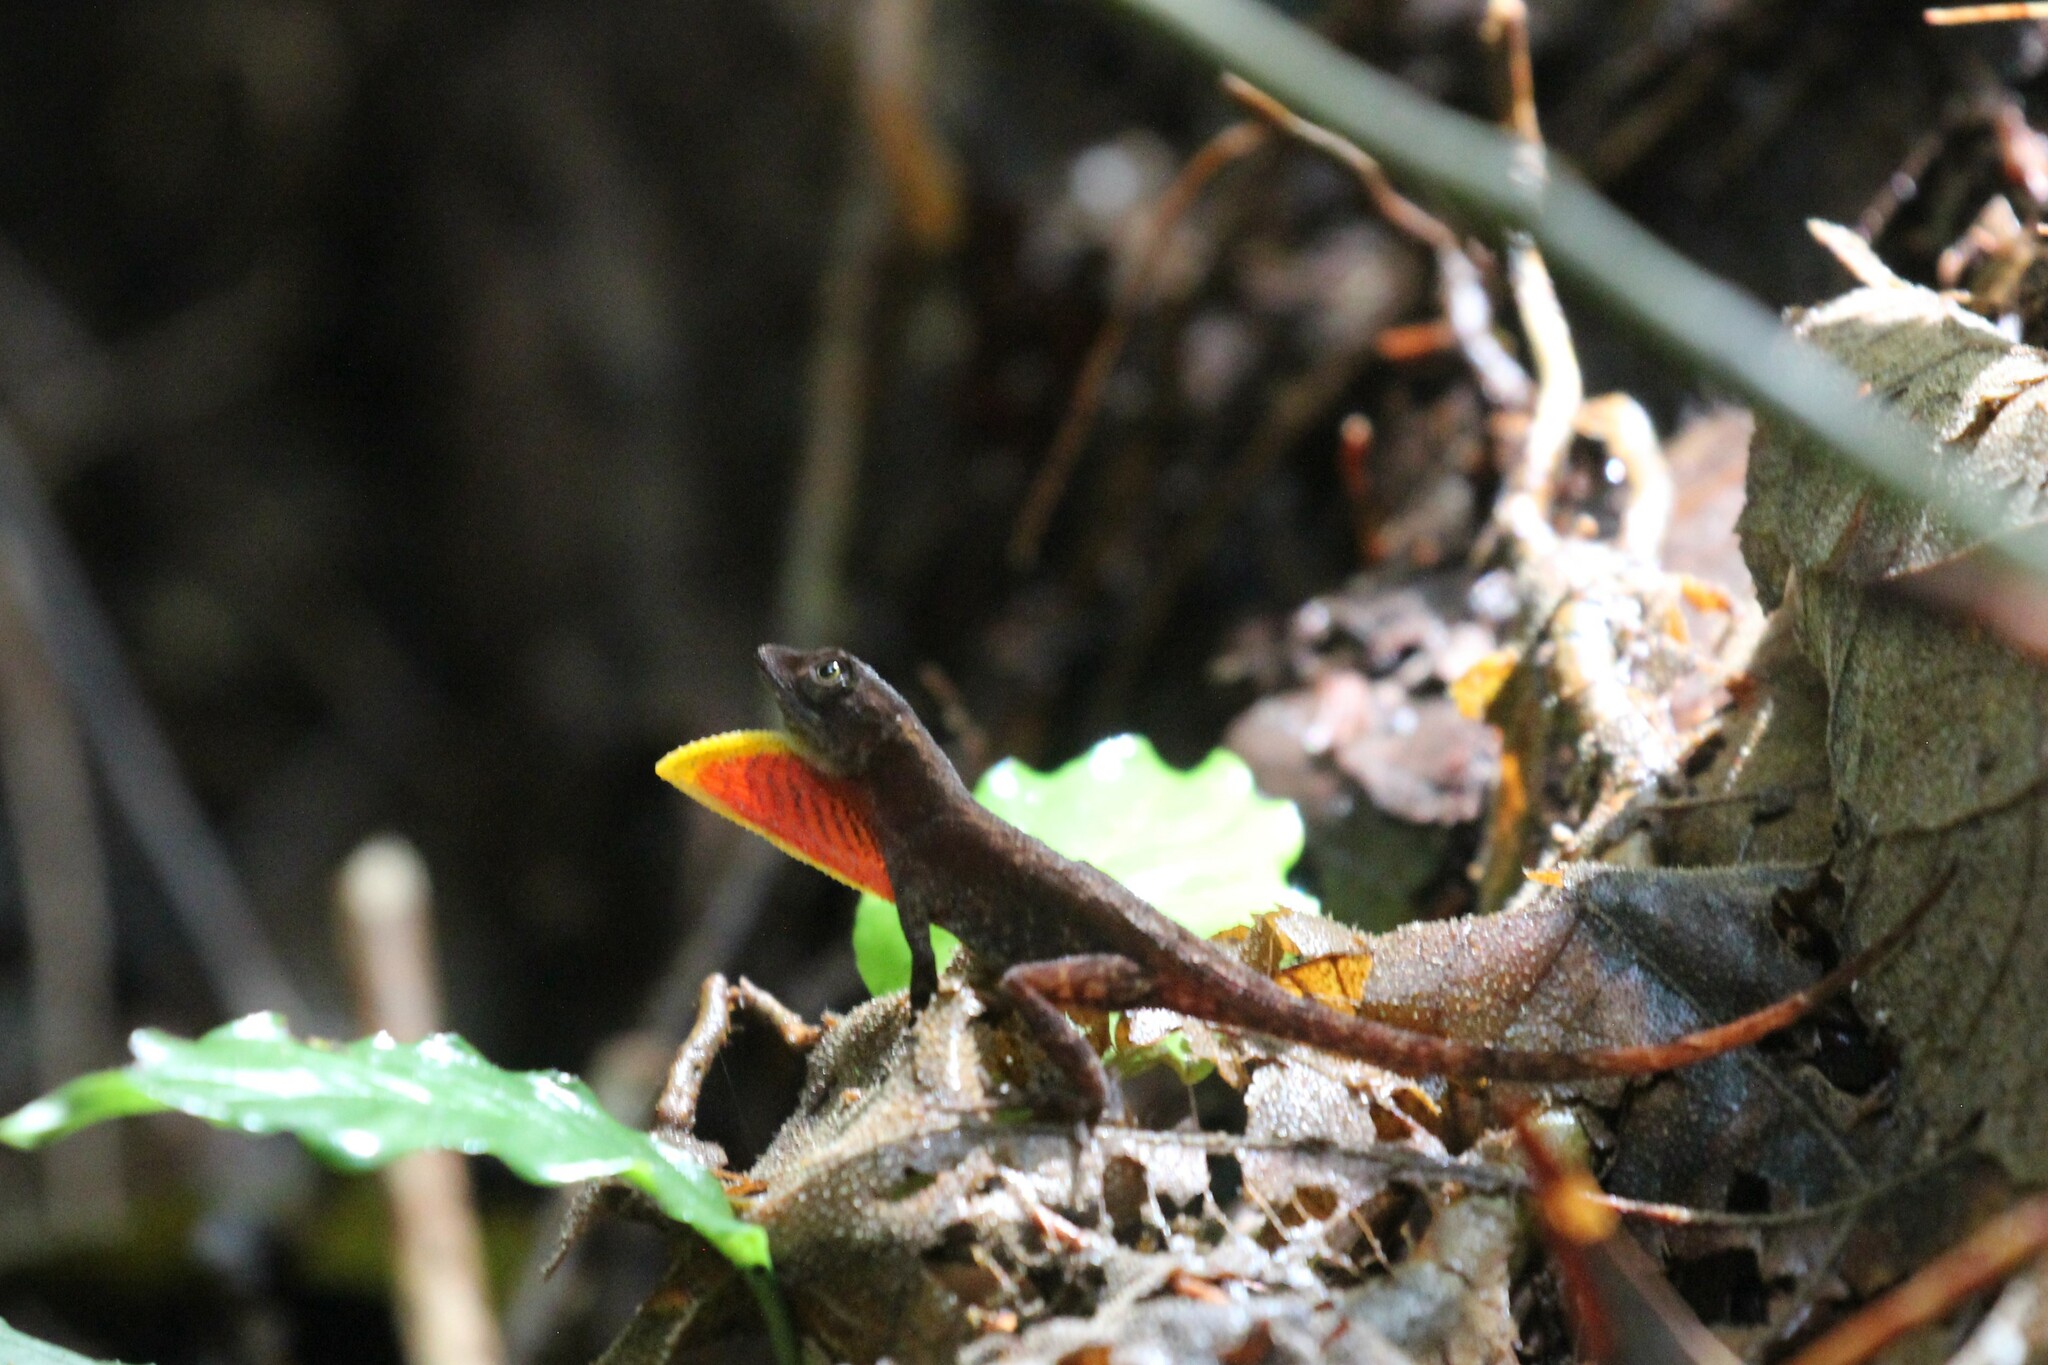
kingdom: Animalia
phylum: Chordata
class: Squamata
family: Dactyloidae
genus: Anolis
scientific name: Anolis humilis
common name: Humble anole
